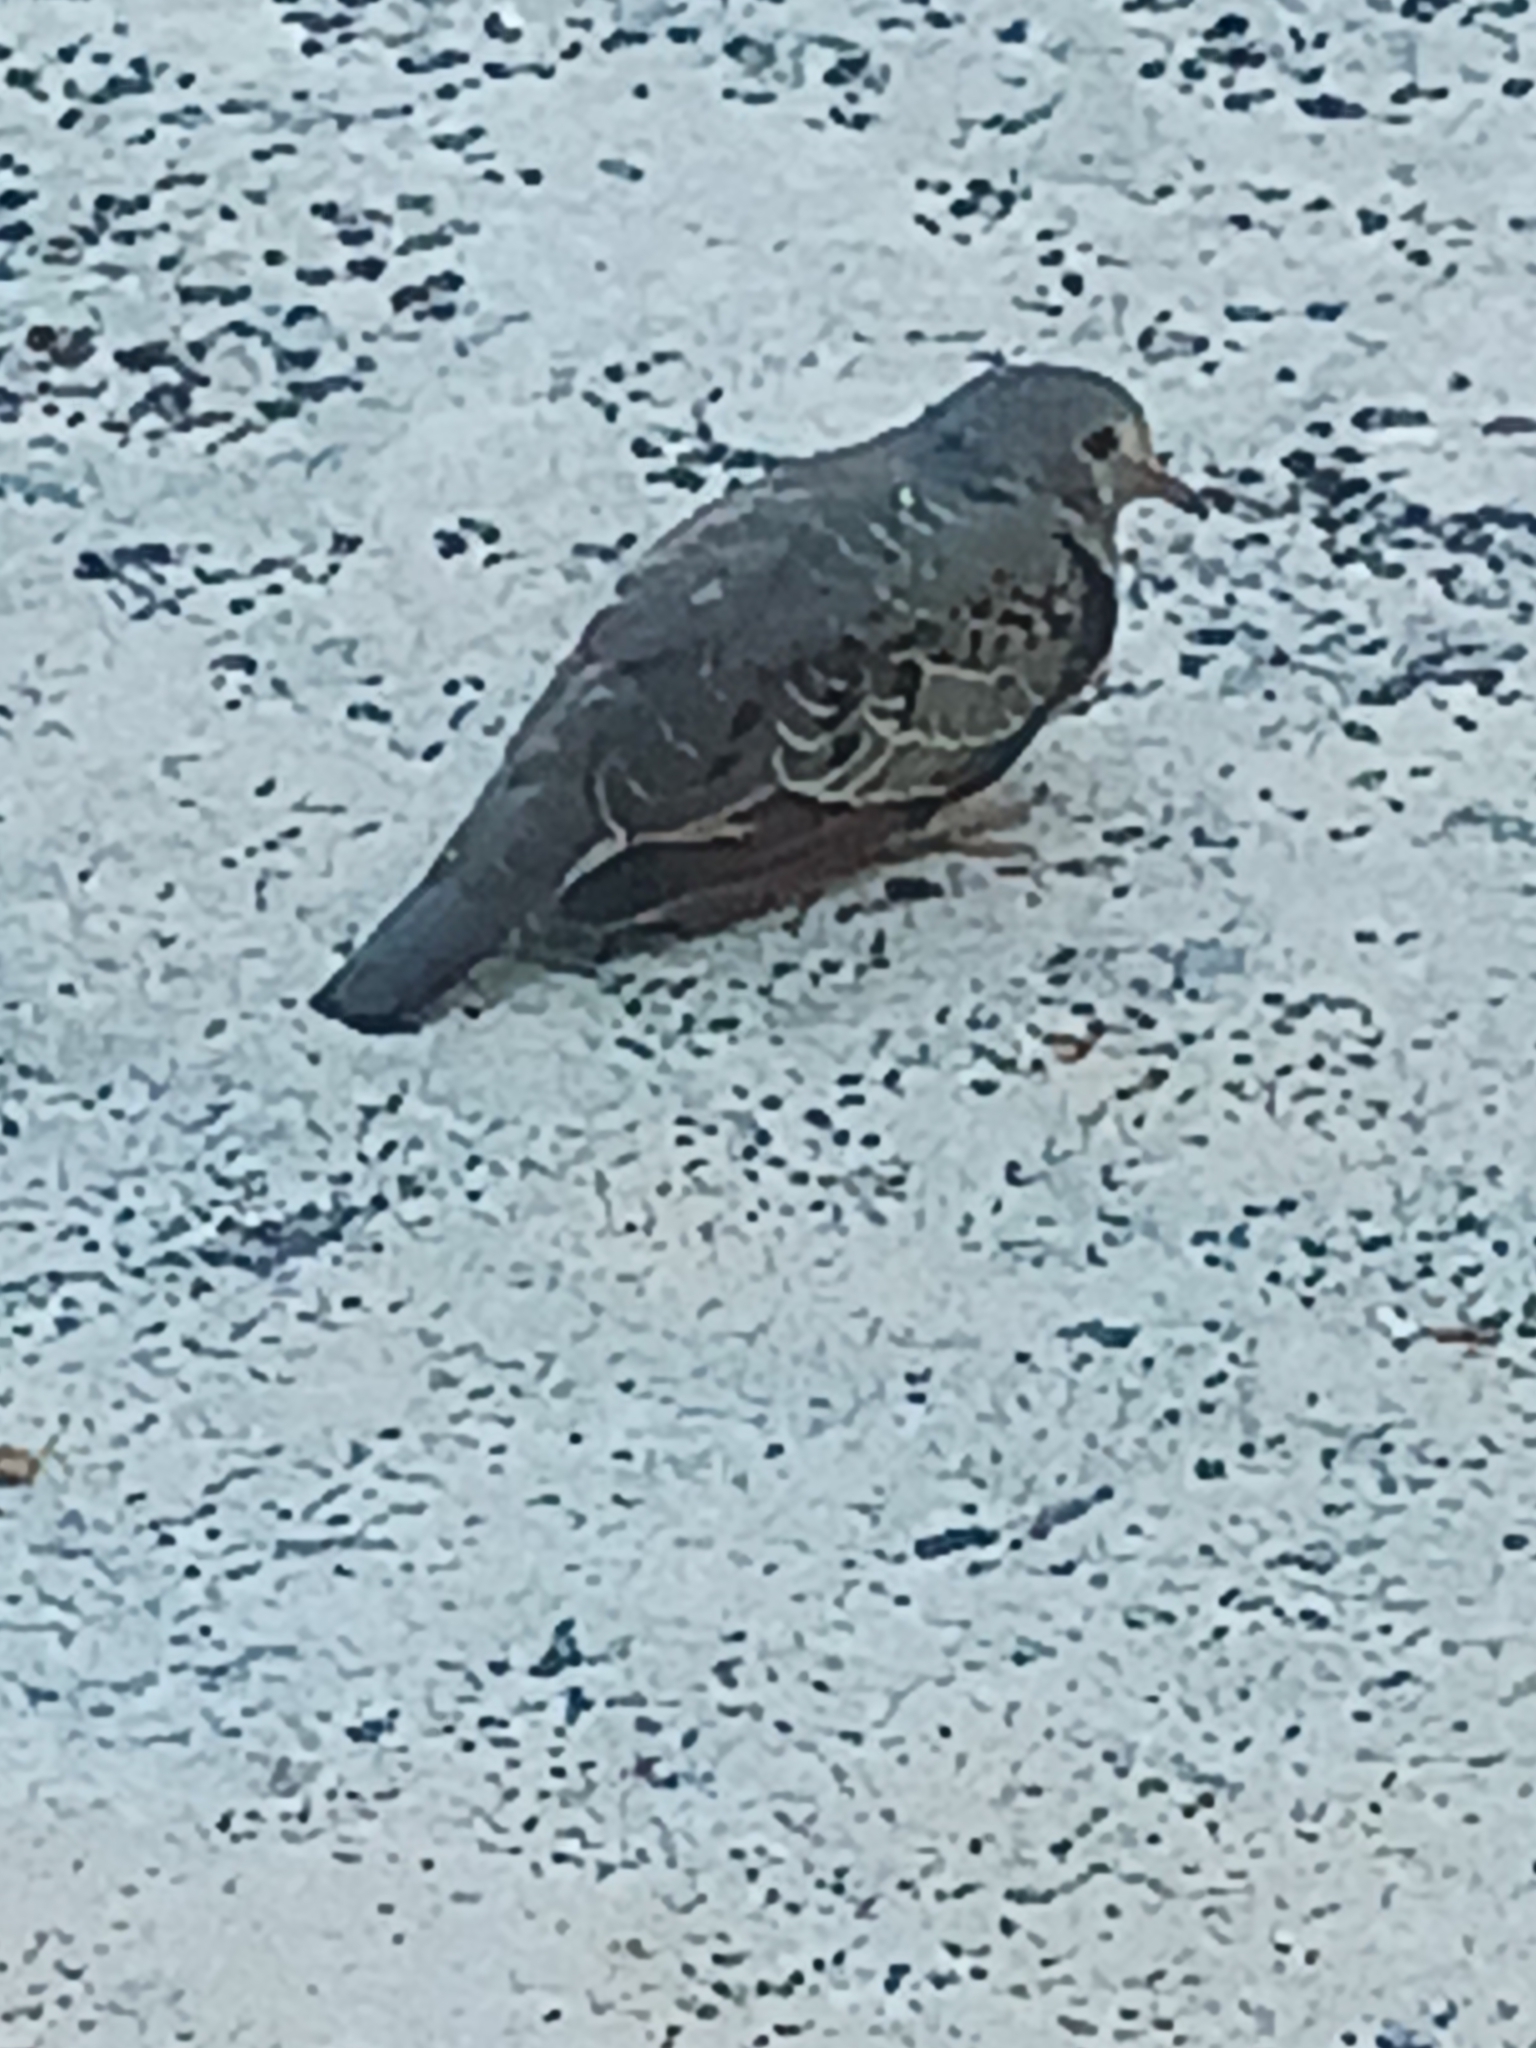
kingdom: Animalia
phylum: Chordata
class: Aves
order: Columbiformes
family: Columbidae
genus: Columbina
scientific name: Columbina passerina
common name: Common ground-dove
